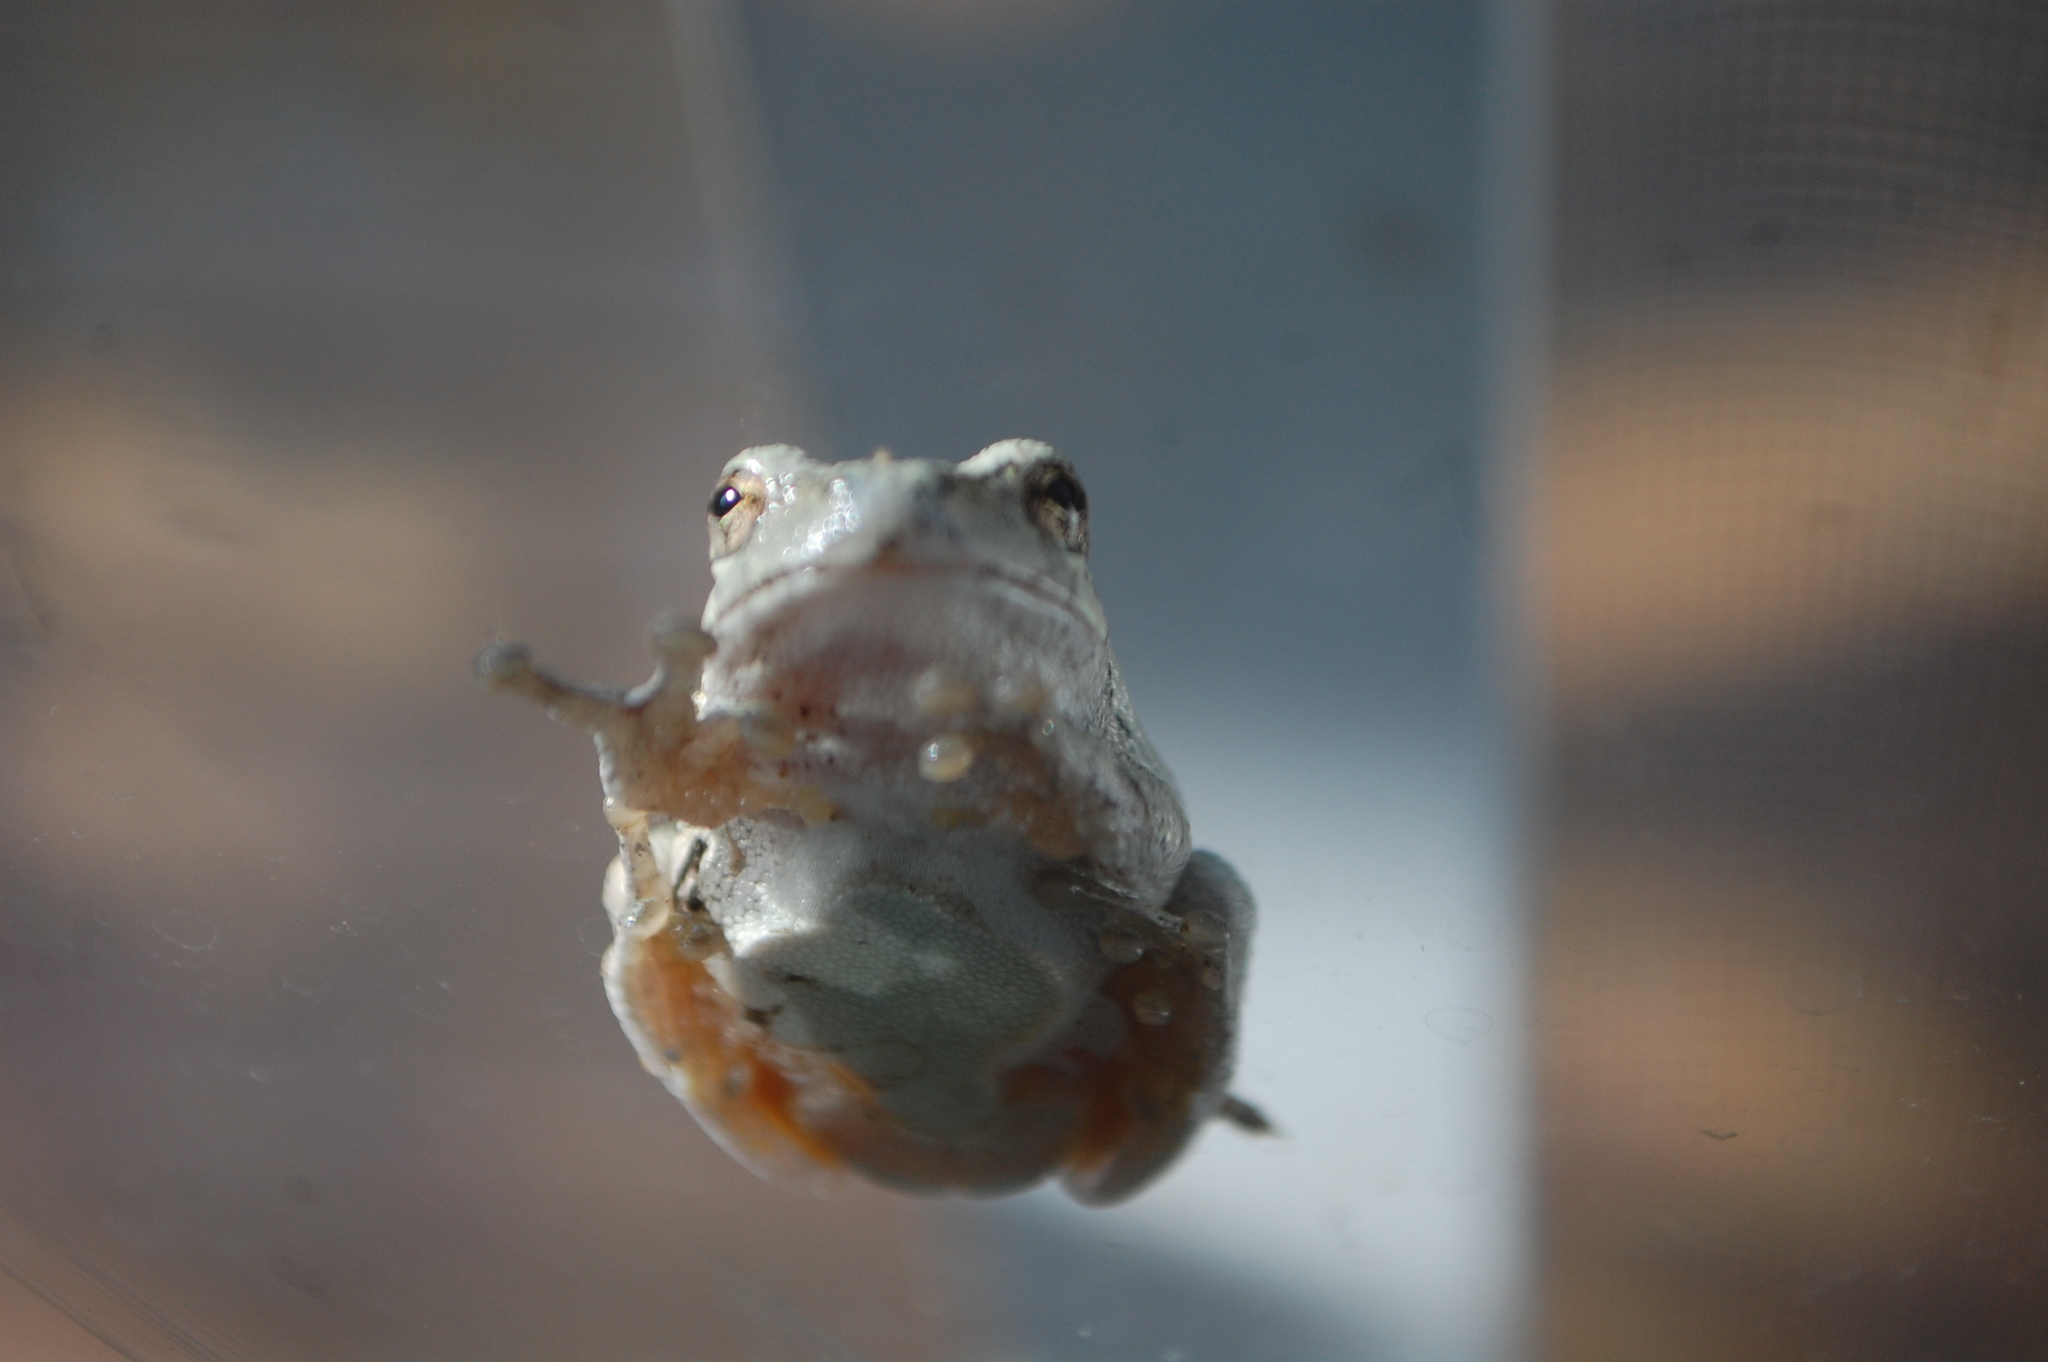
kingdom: Animalia
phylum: Chordata
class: Amphibia
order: Anura
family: Hylidae
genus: Hyla
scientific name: Hyla
